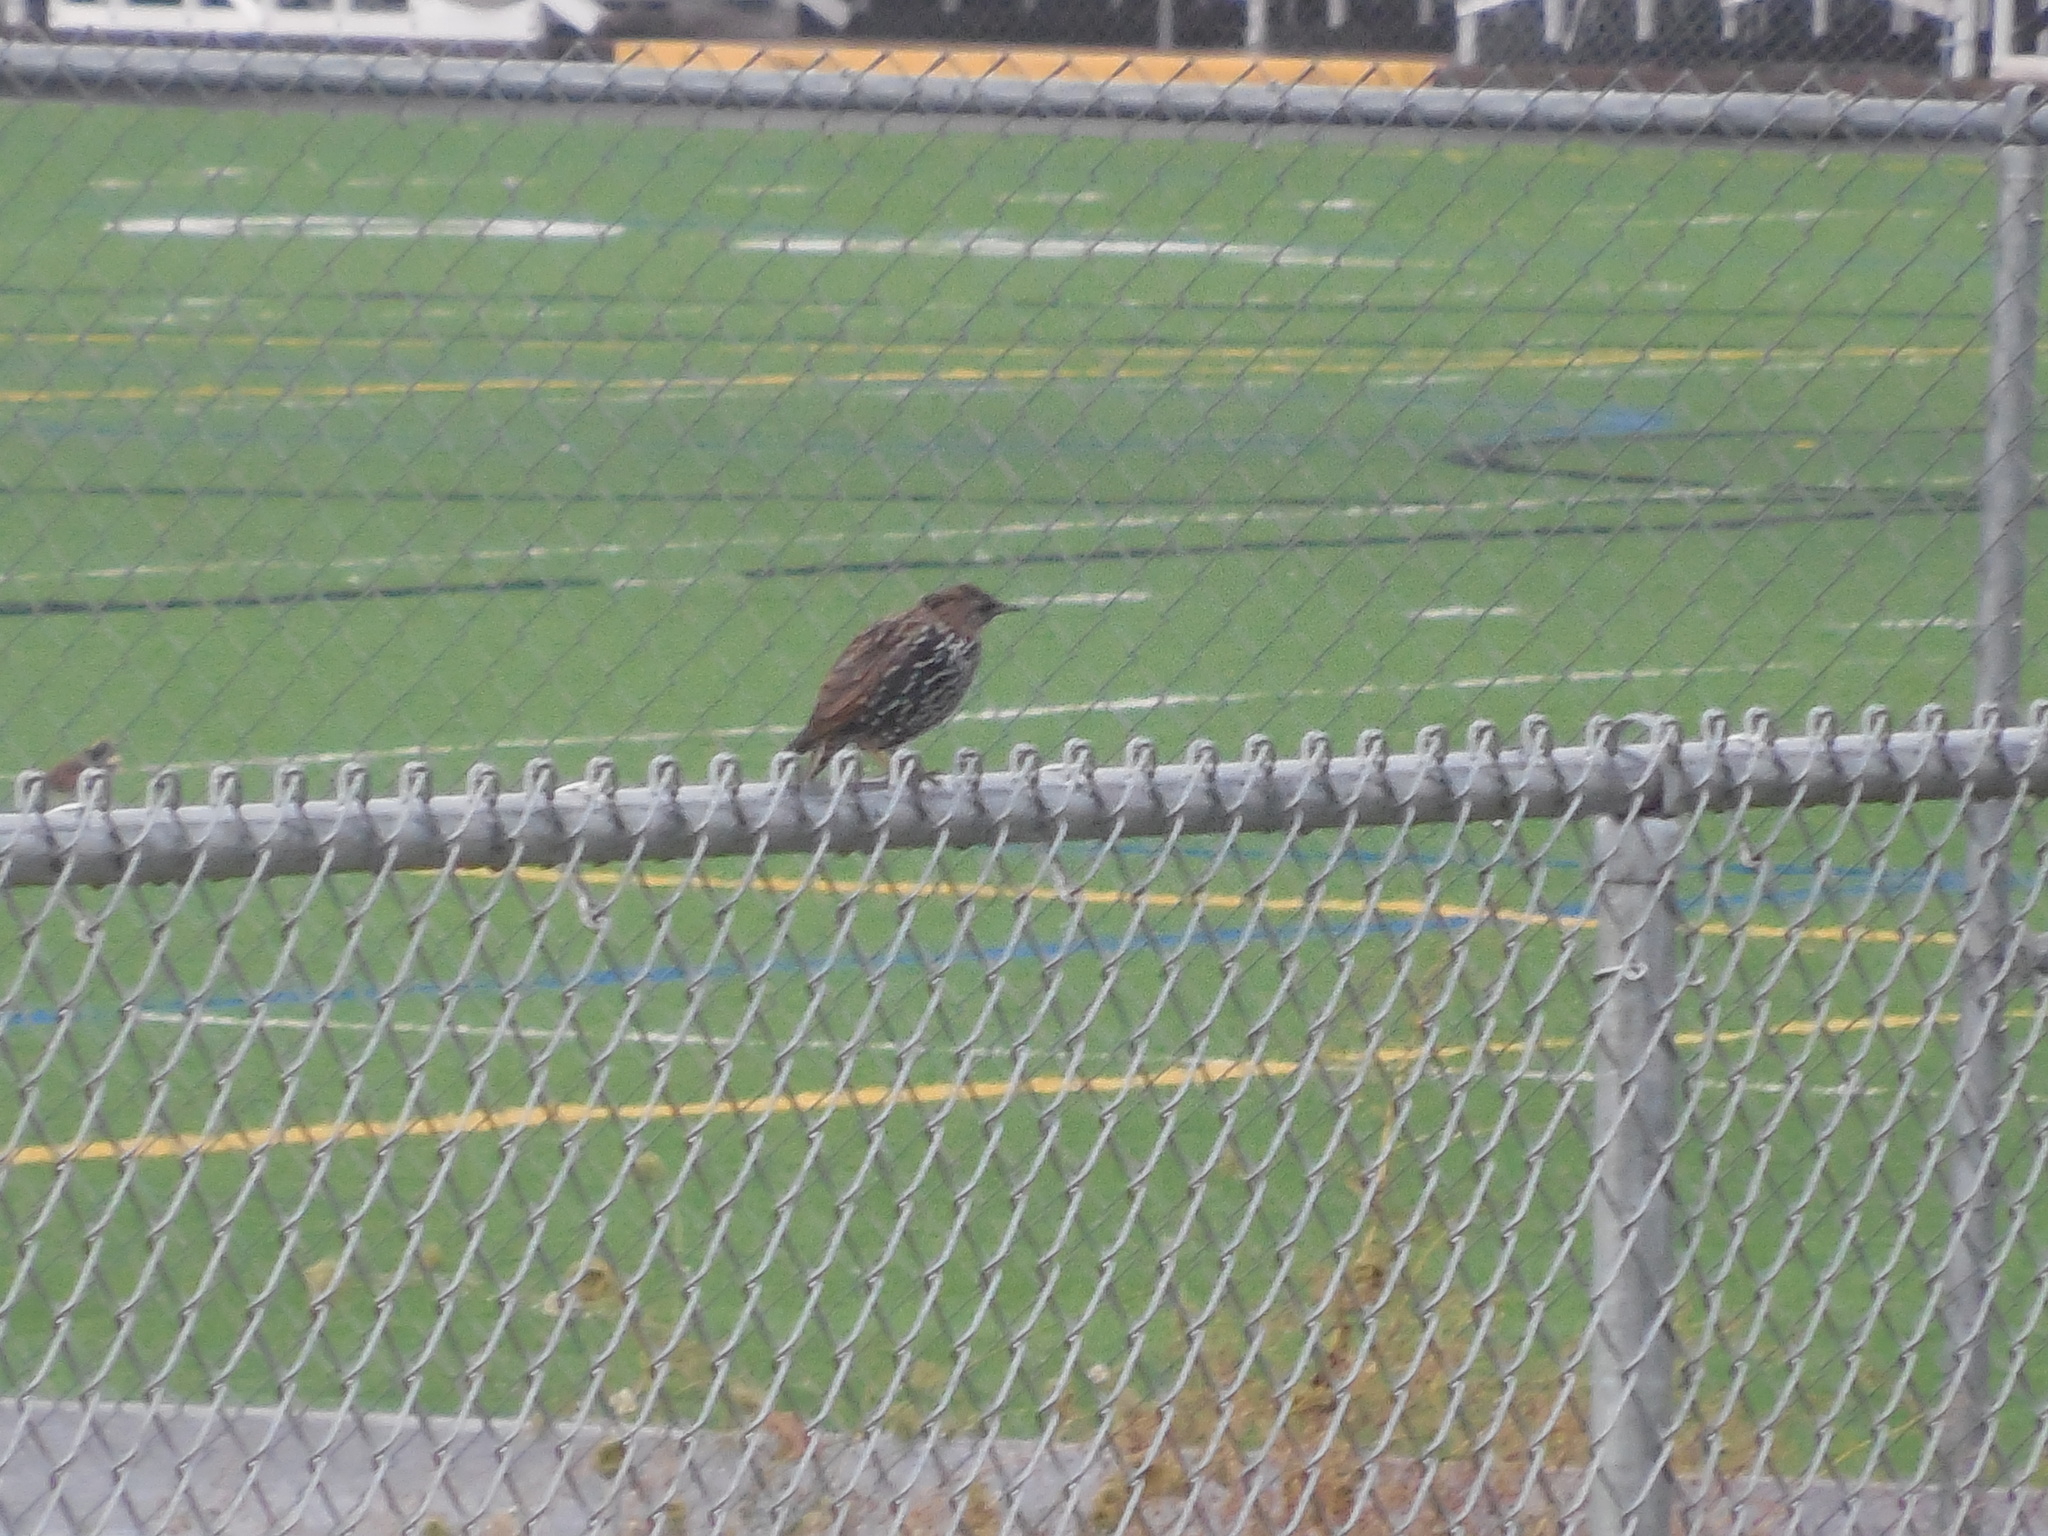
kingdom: Animalia
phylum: Chordata
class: Aves
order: Passeriformes
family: Sturnidae
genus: Sturnus
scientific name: Sturnus vulgaris
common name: Common starling
